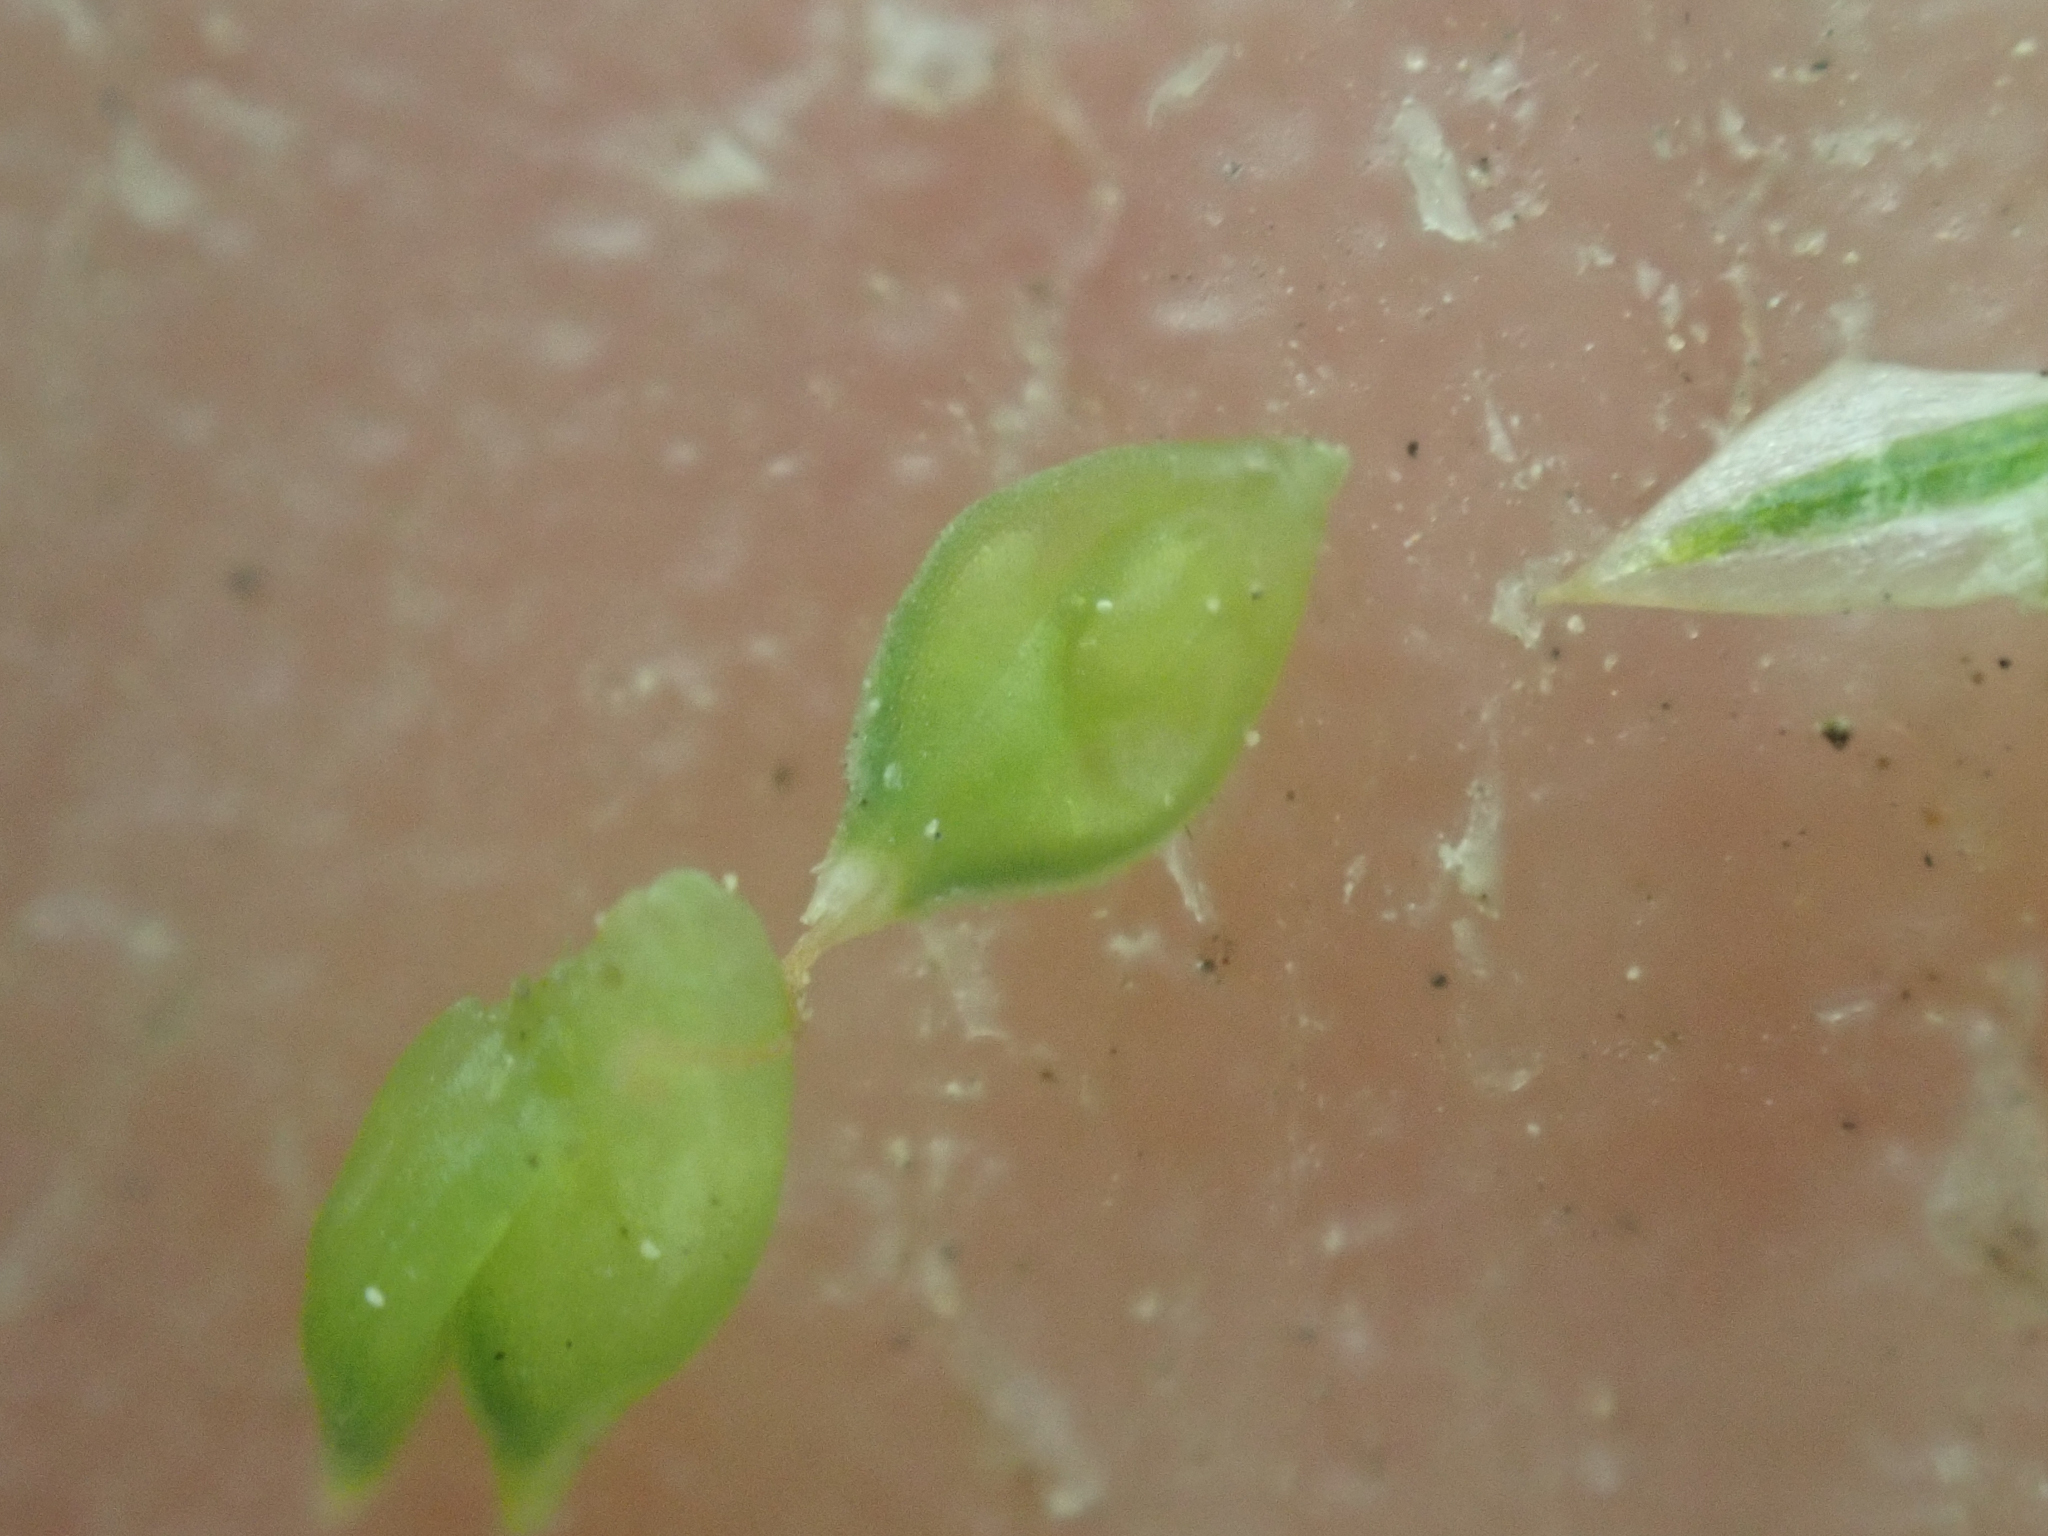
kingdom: Plantae
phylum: Tracheophyta
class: Liliopsida
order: Poales
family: Cyperaceae
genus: Carex
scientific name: Carex canescens
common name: White sedge
